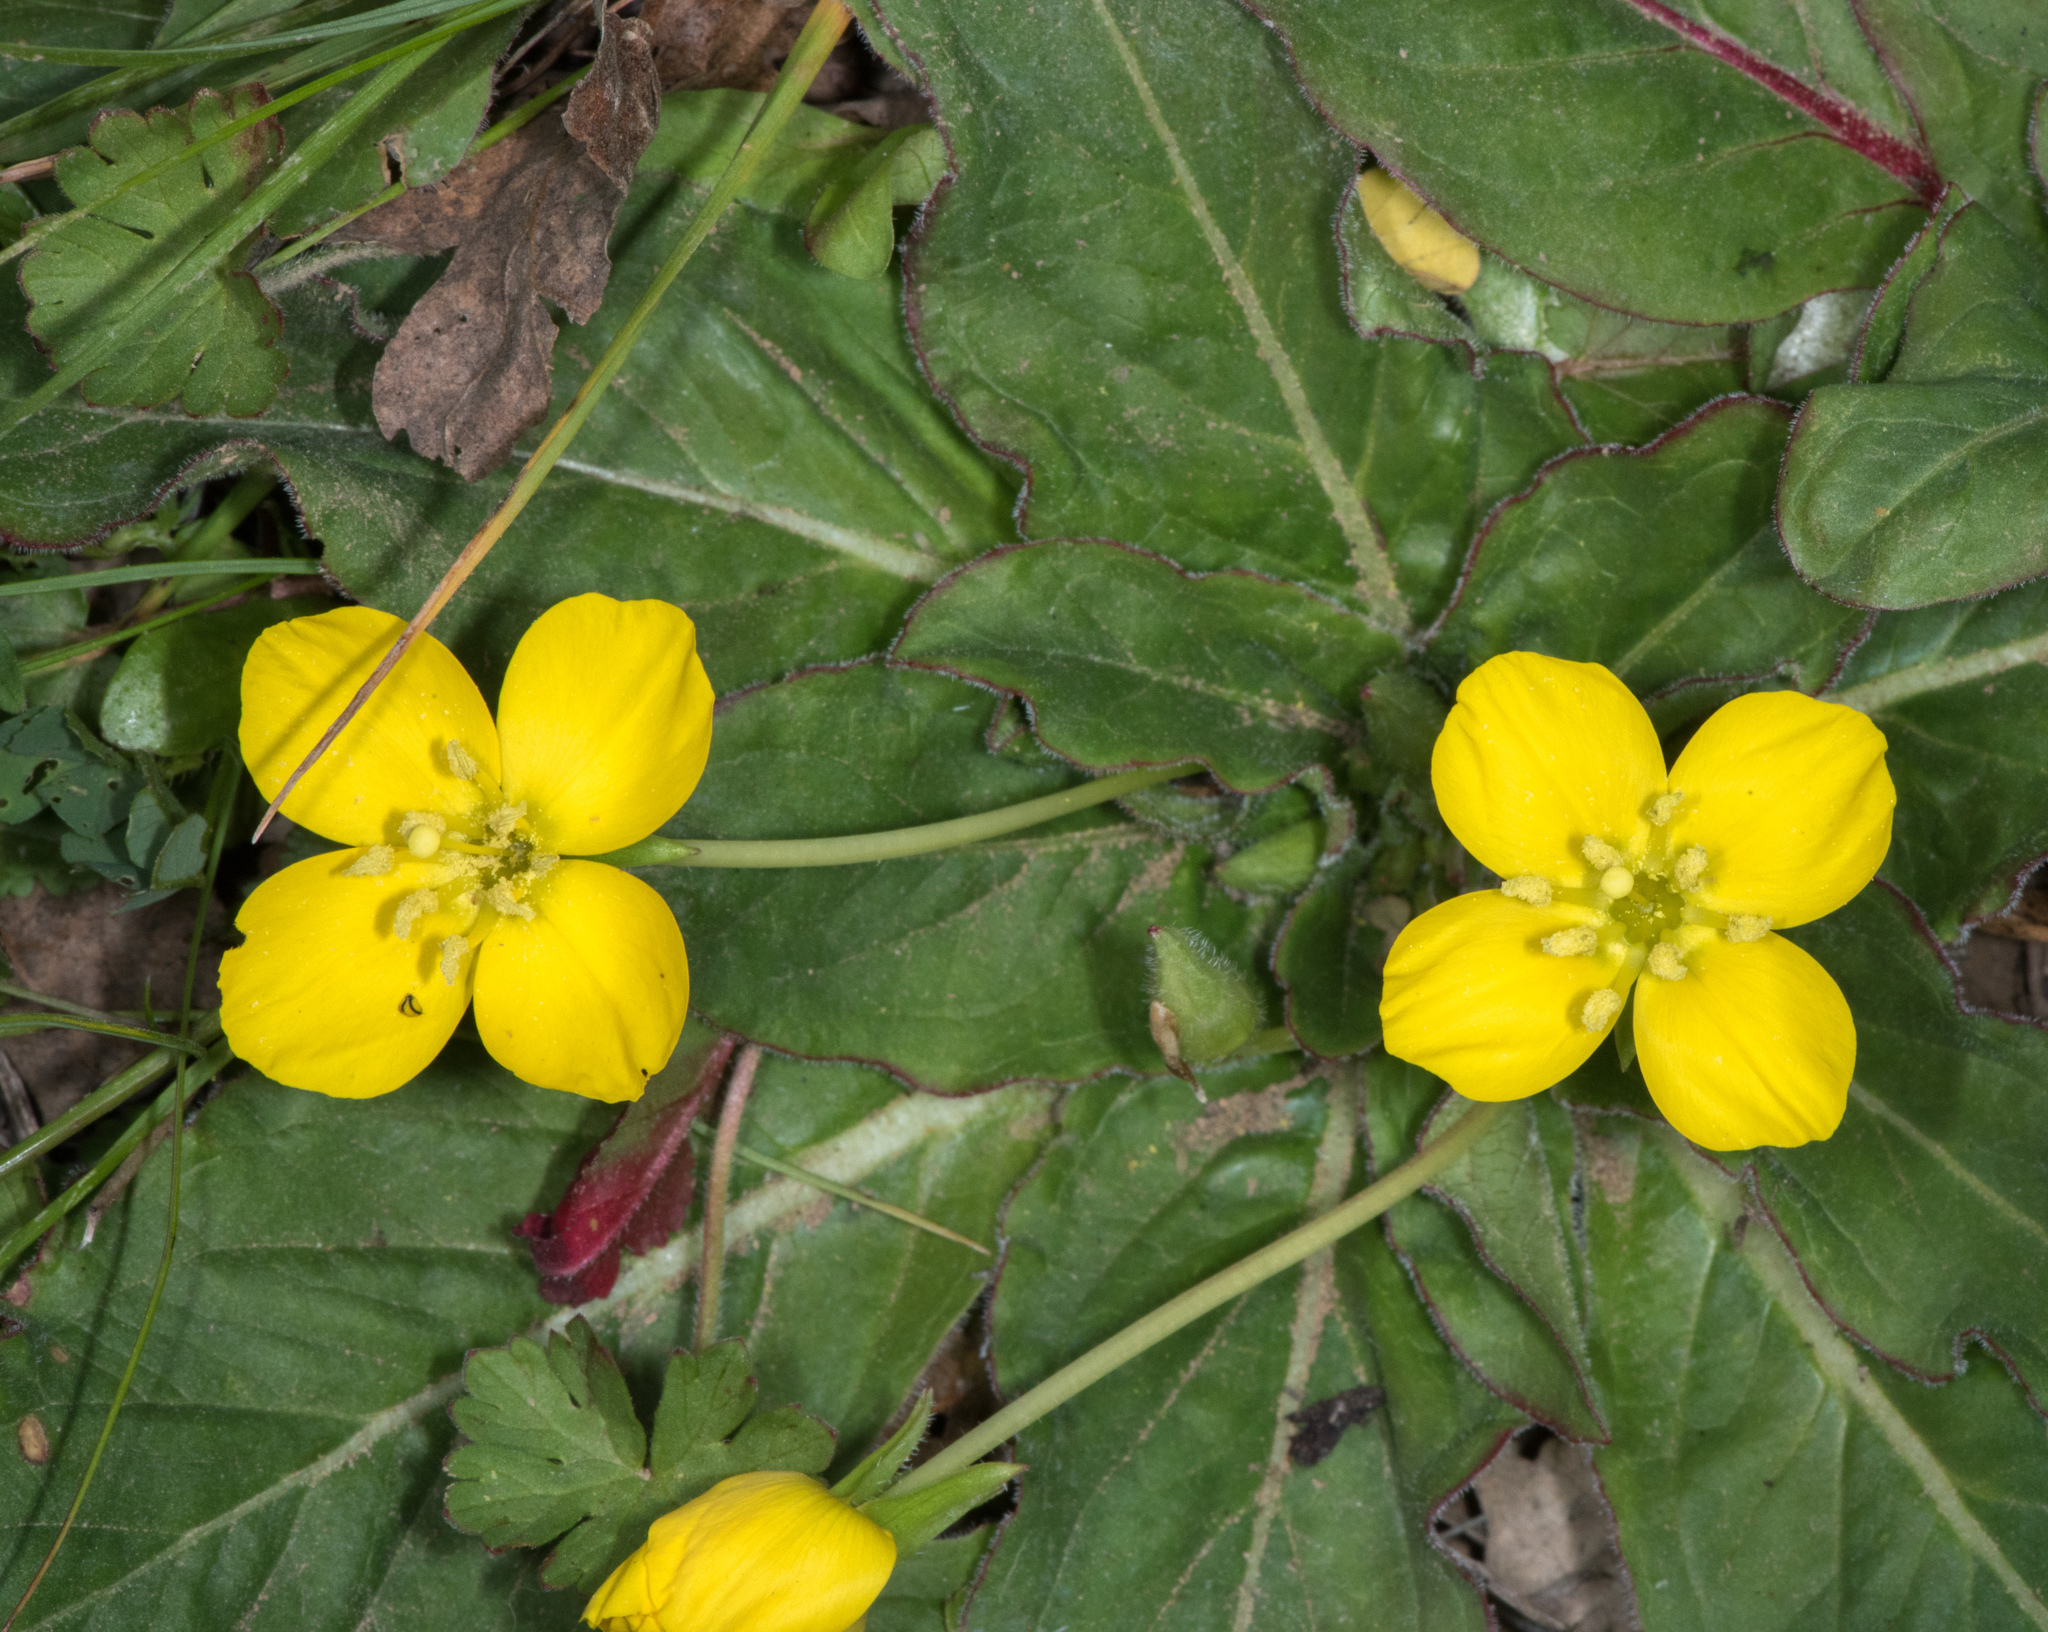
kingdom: Plantae
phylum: Tracheophyta
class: Magnoliopsida
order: Myrtales
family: Onagraceae
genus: Taraxia
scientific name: Taraxia ovata
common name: Goldeneggs
